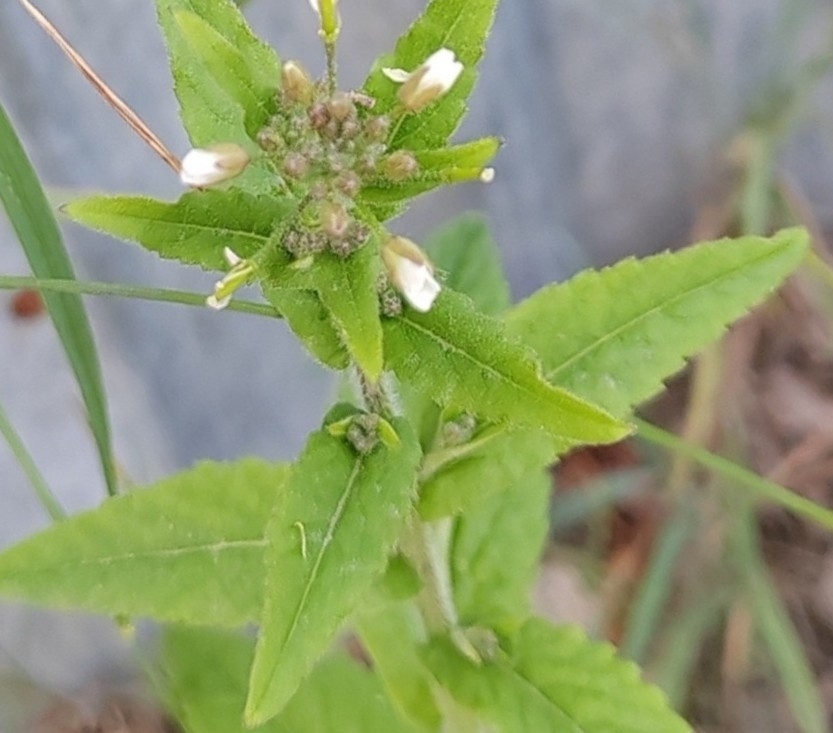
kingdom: Plantae
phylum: Tracheophyta
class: Magnoliopsida
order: Brassicales
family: Brassicaceae
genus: Catolobus
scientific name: Catolobus pendulus
